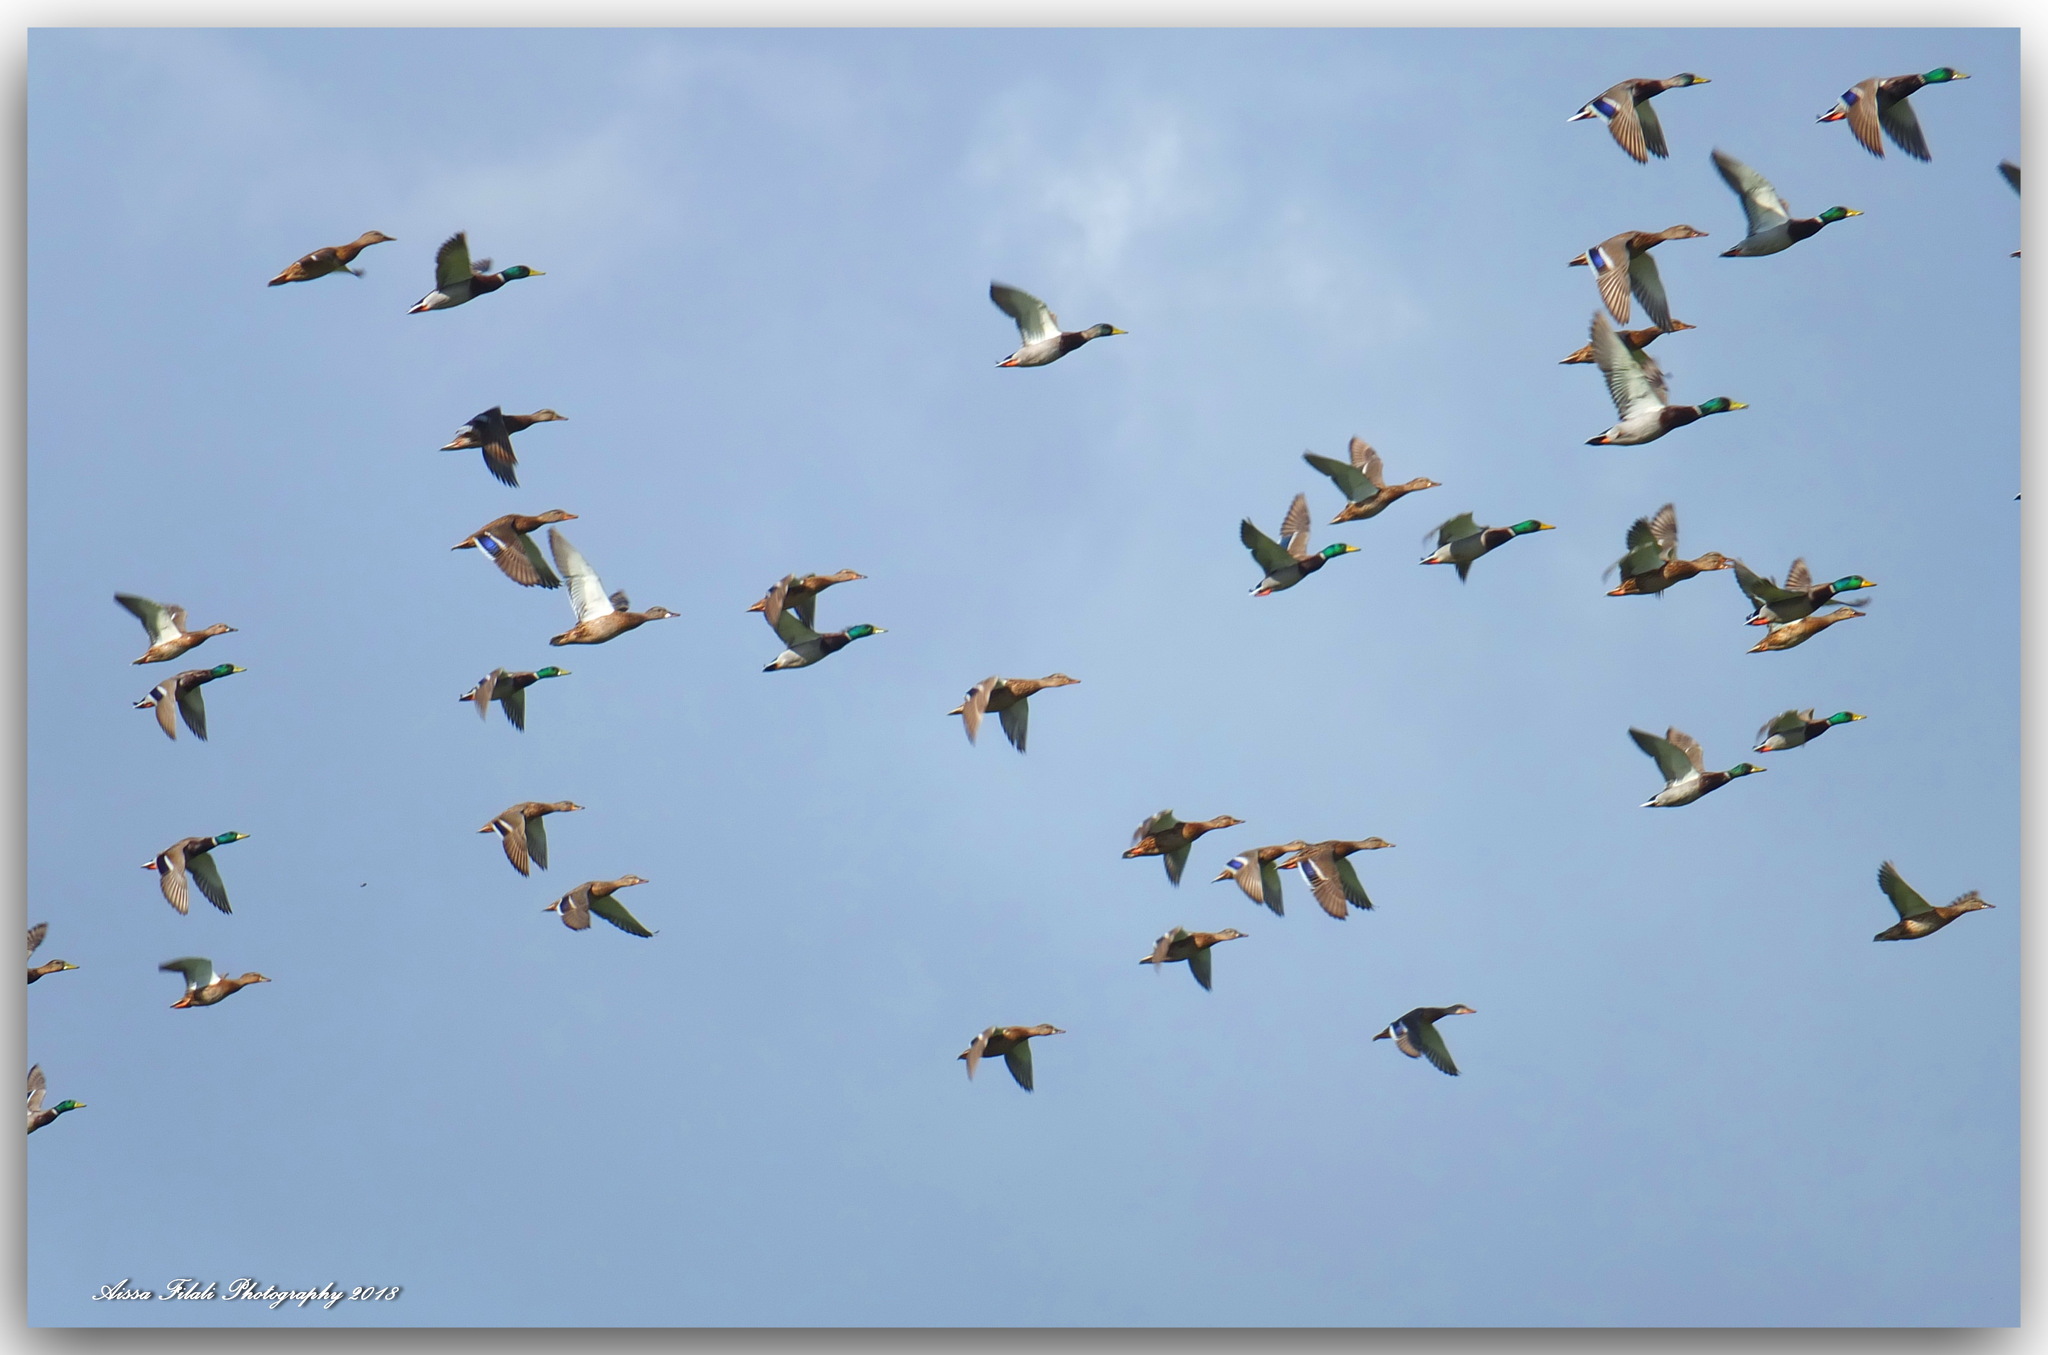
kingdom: Animalia
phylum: Chordata
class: Aves
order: Anseriformes
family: Anatidae
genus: Anas
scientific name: Anas platyrhynchos
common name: Mallard
